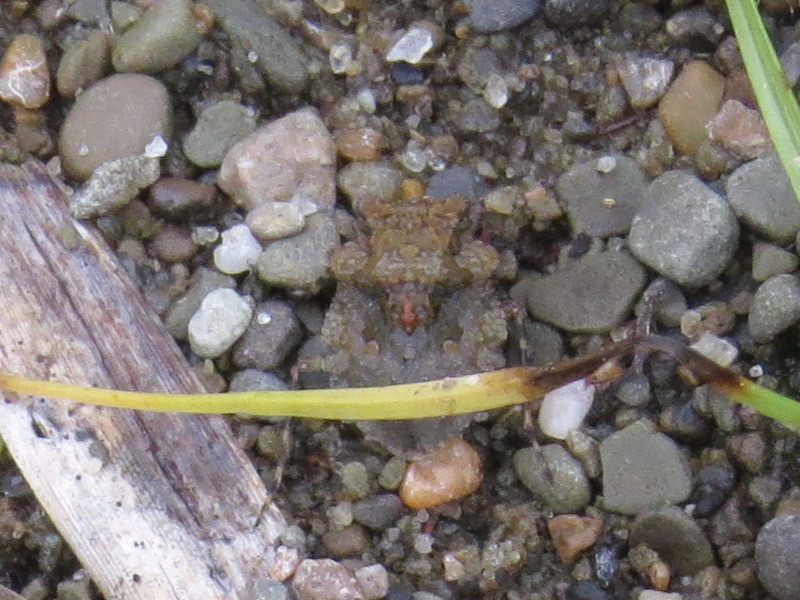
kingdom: Animalia
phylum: Arthropoda
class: Insecta
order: Hemiptera
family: Gelastocoridae
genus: Gelastocoris
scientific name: Gelastocoris oculatus
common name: Toad bug
